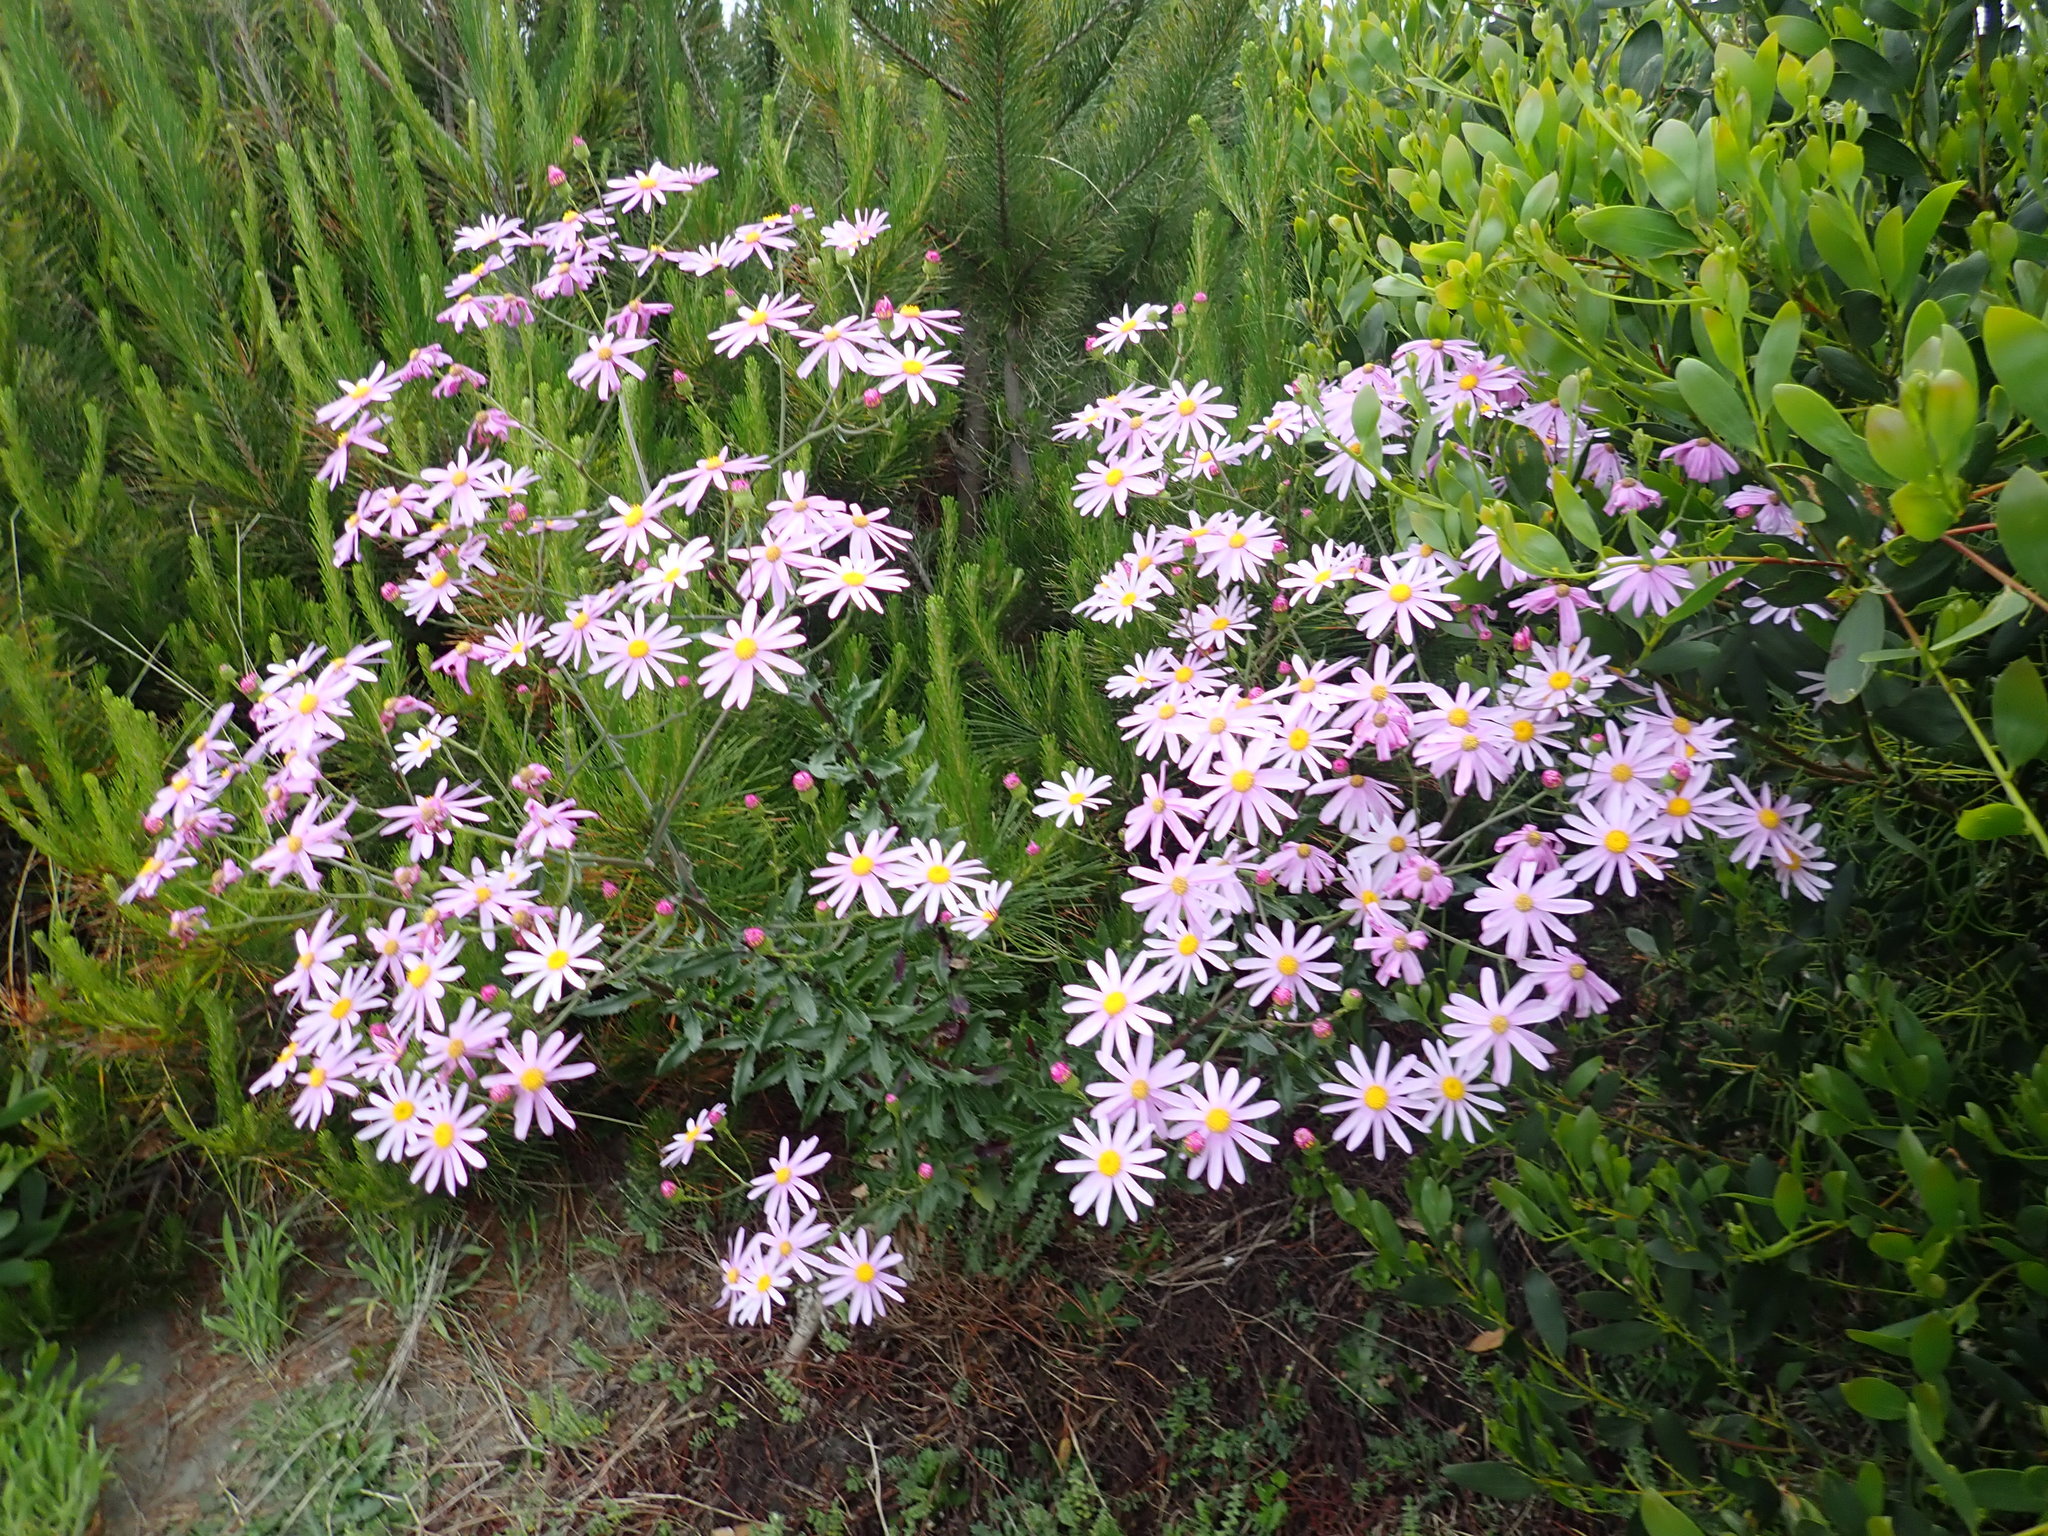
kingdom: Plantae
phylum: Tracheophyta
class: Magnoliopsida
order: Asterales
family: Asteraceae
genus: Senecio
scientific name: Senecio glastifolius
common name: Woad-leaved ragwort
